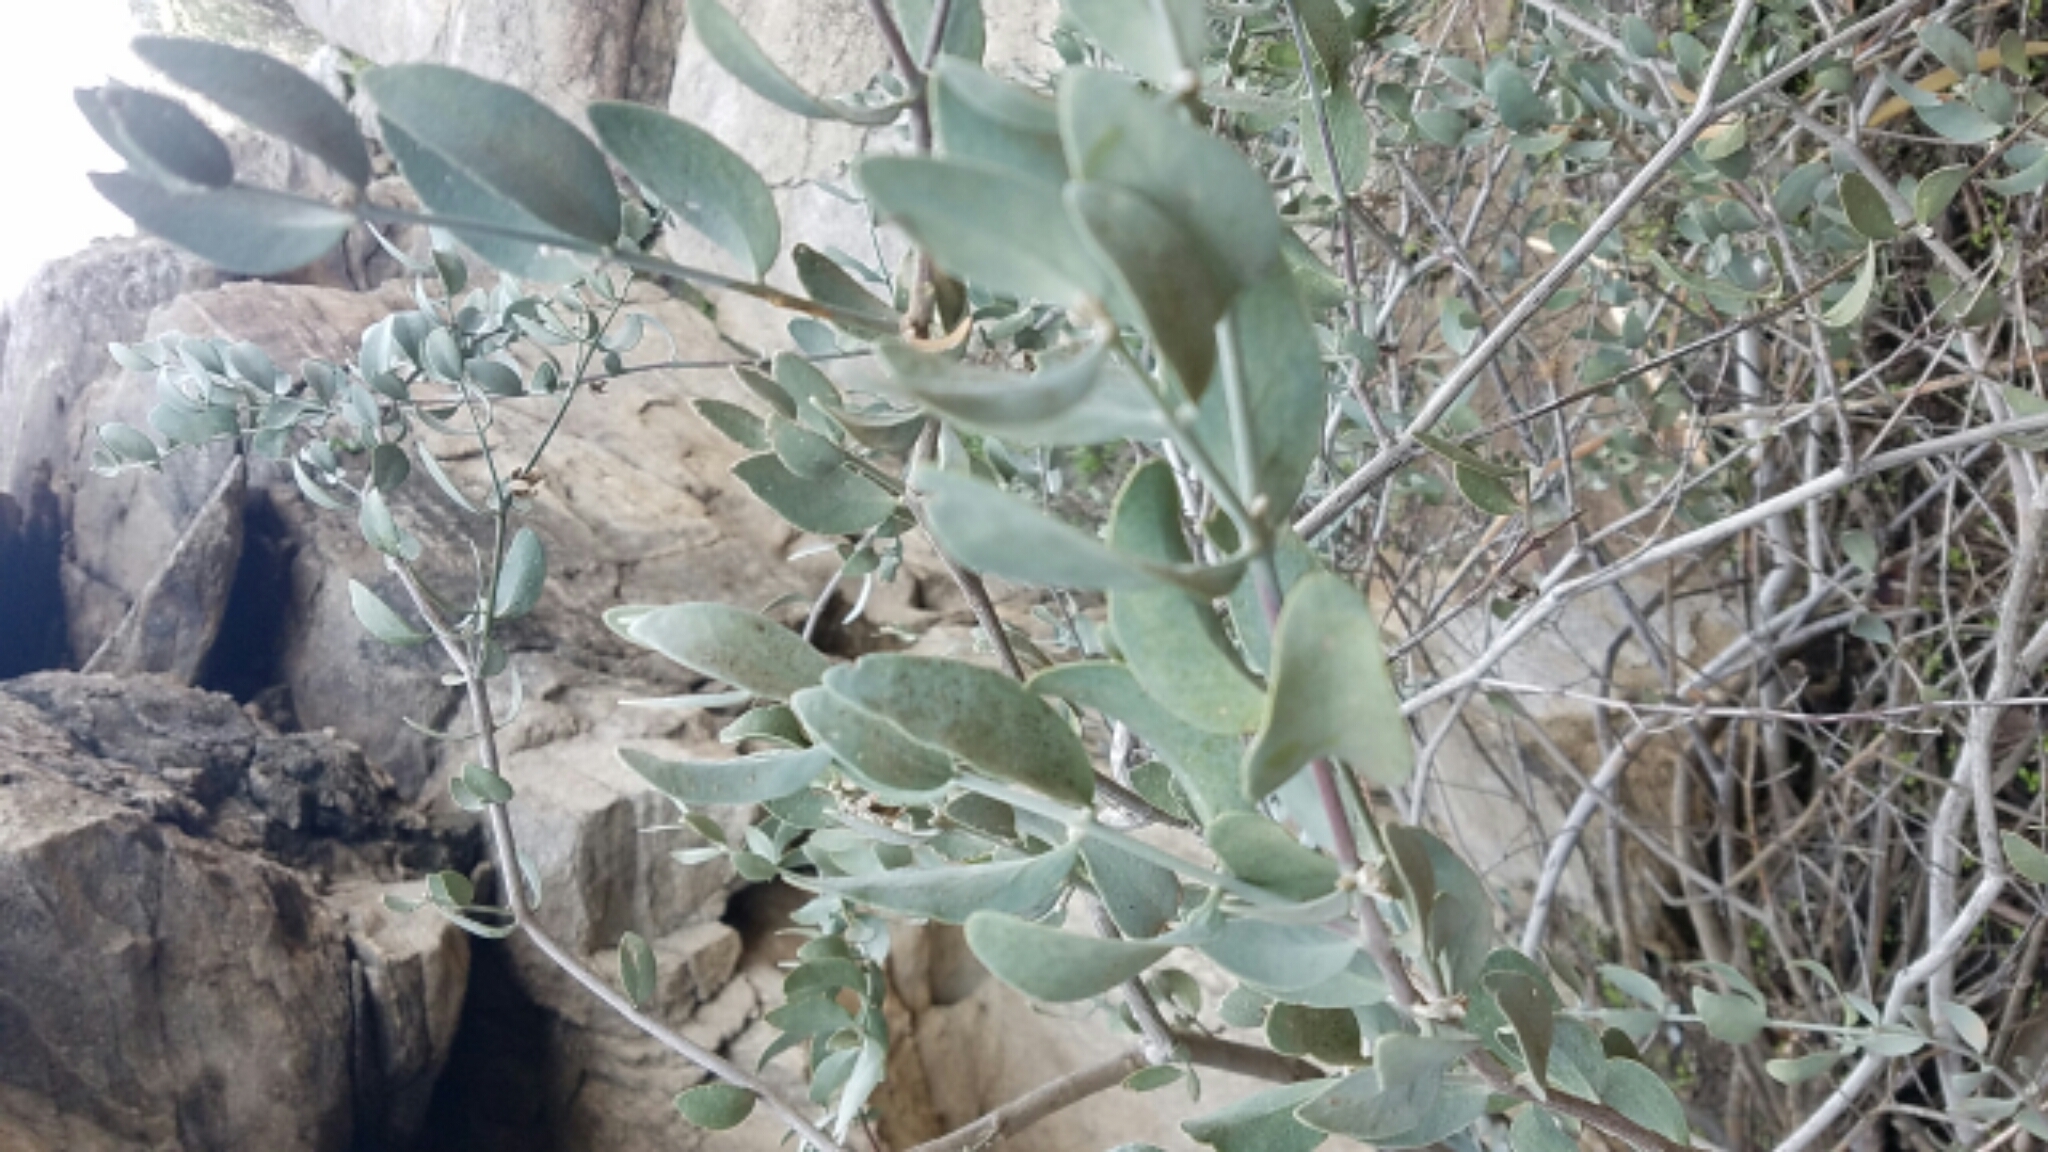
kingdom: Plantae
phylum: Tracheophyta
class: Magnoliopsida
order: Caryophyllales
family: Simmondsiaceae
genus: Simmondsia
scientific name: Simmondsia chinensis
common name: Jojoba
